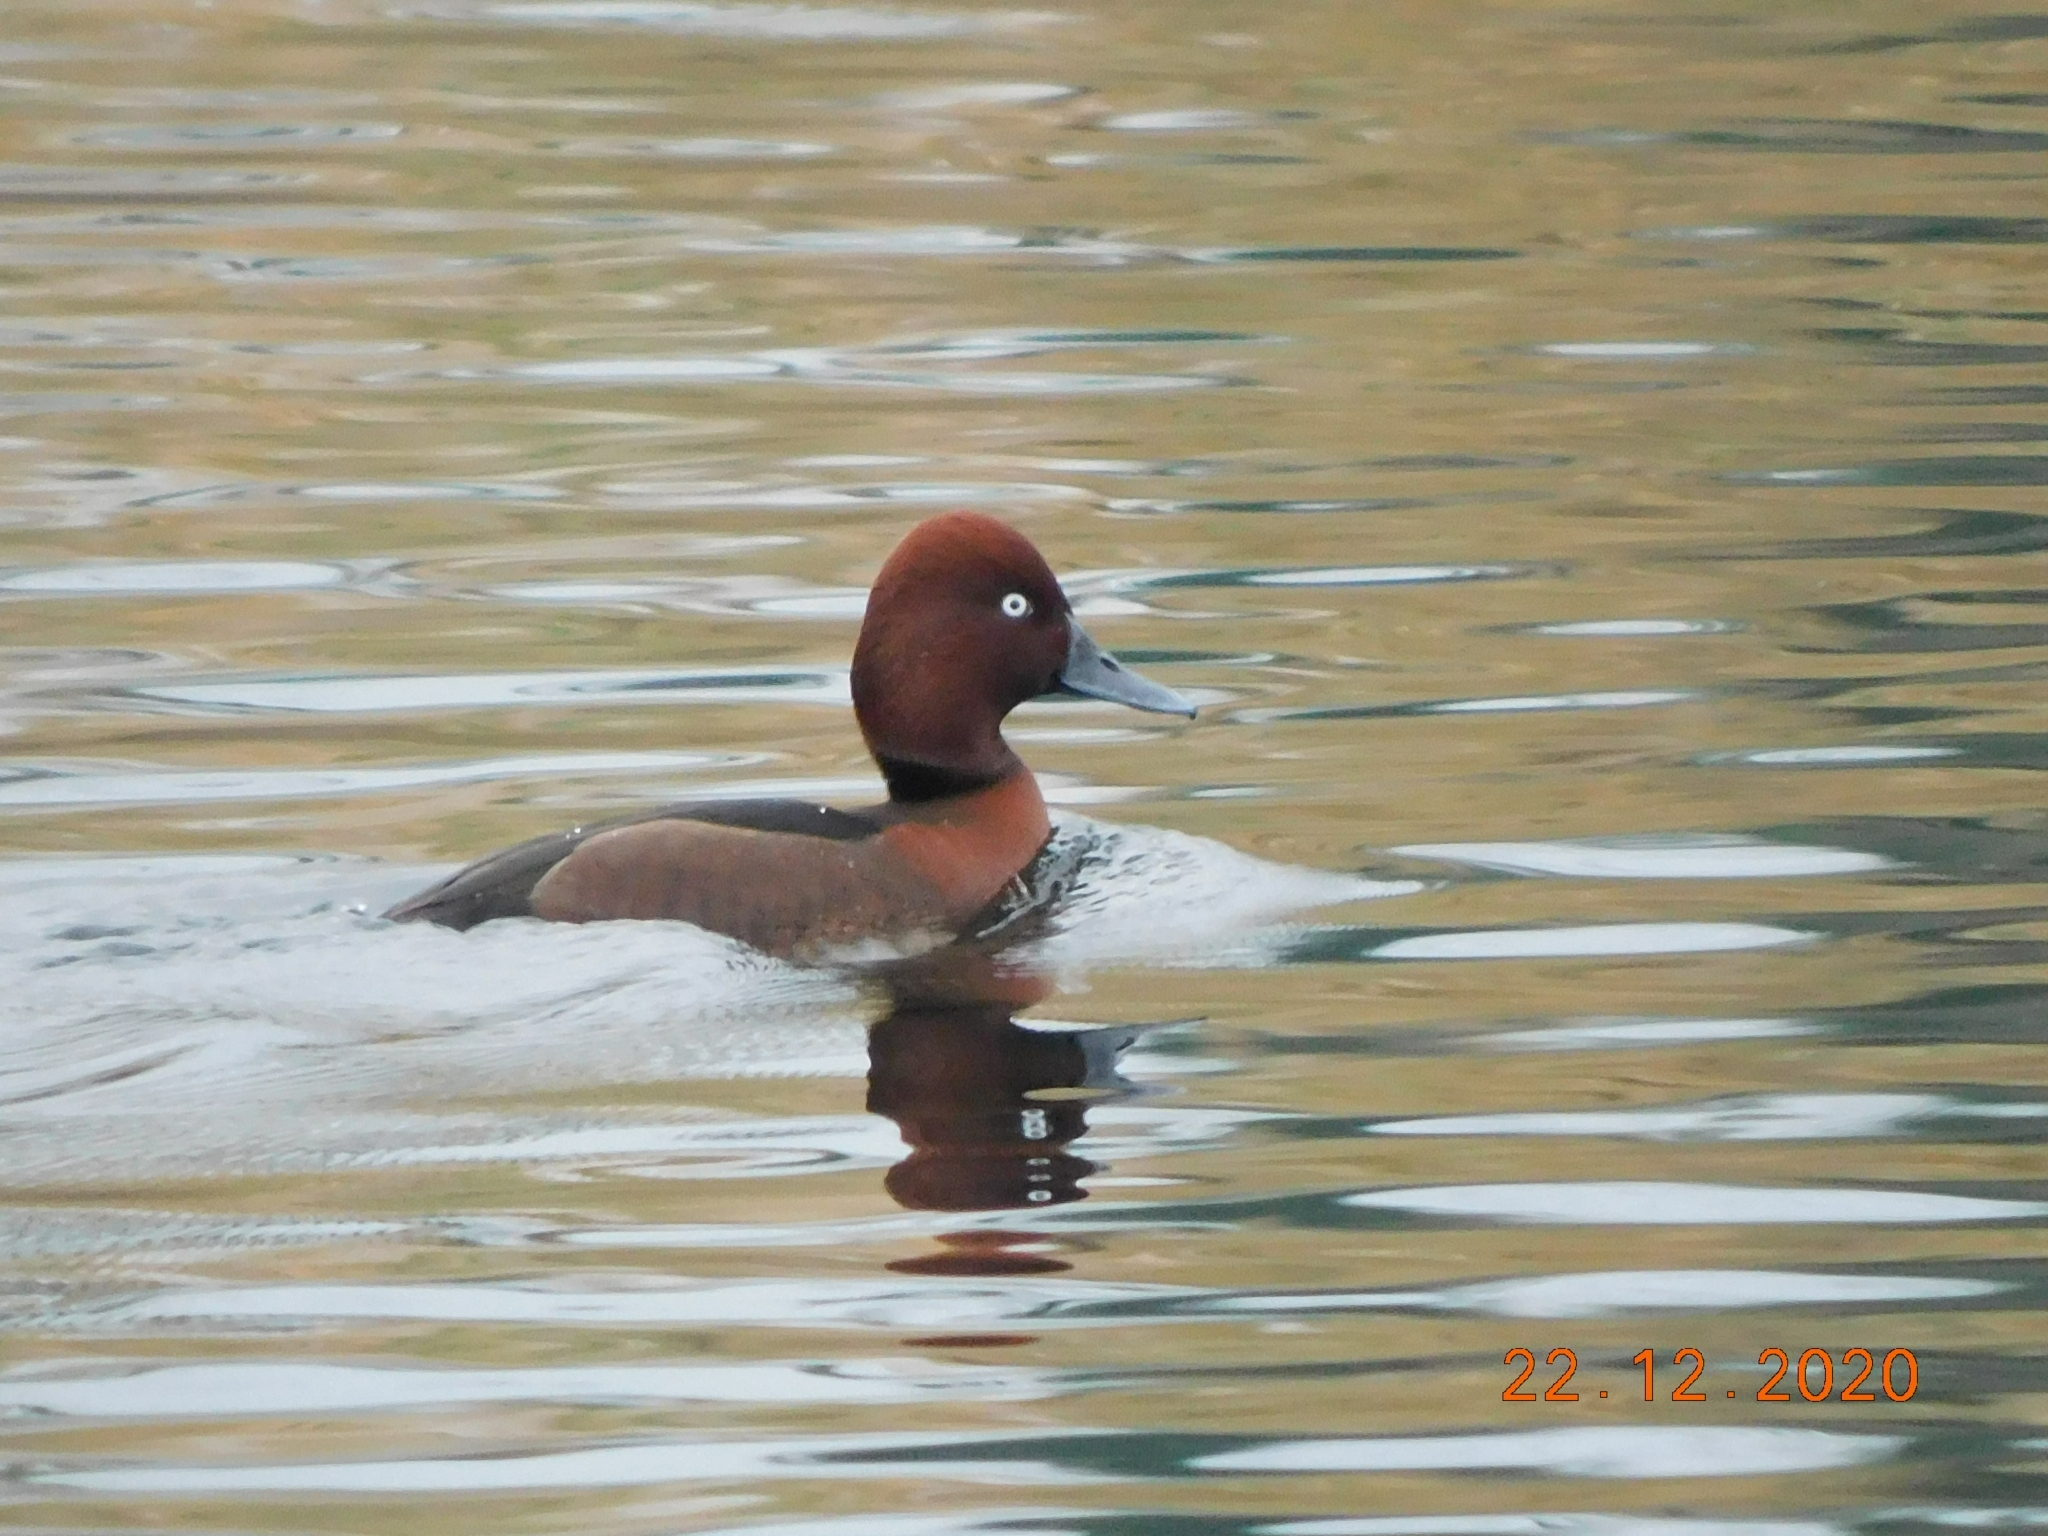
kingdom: Animalia
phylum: Chordata
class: Aves
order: Anseriformes
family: Anatidae
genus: Aythya
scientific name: Aythya nyroca
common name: Ferruginous duck
